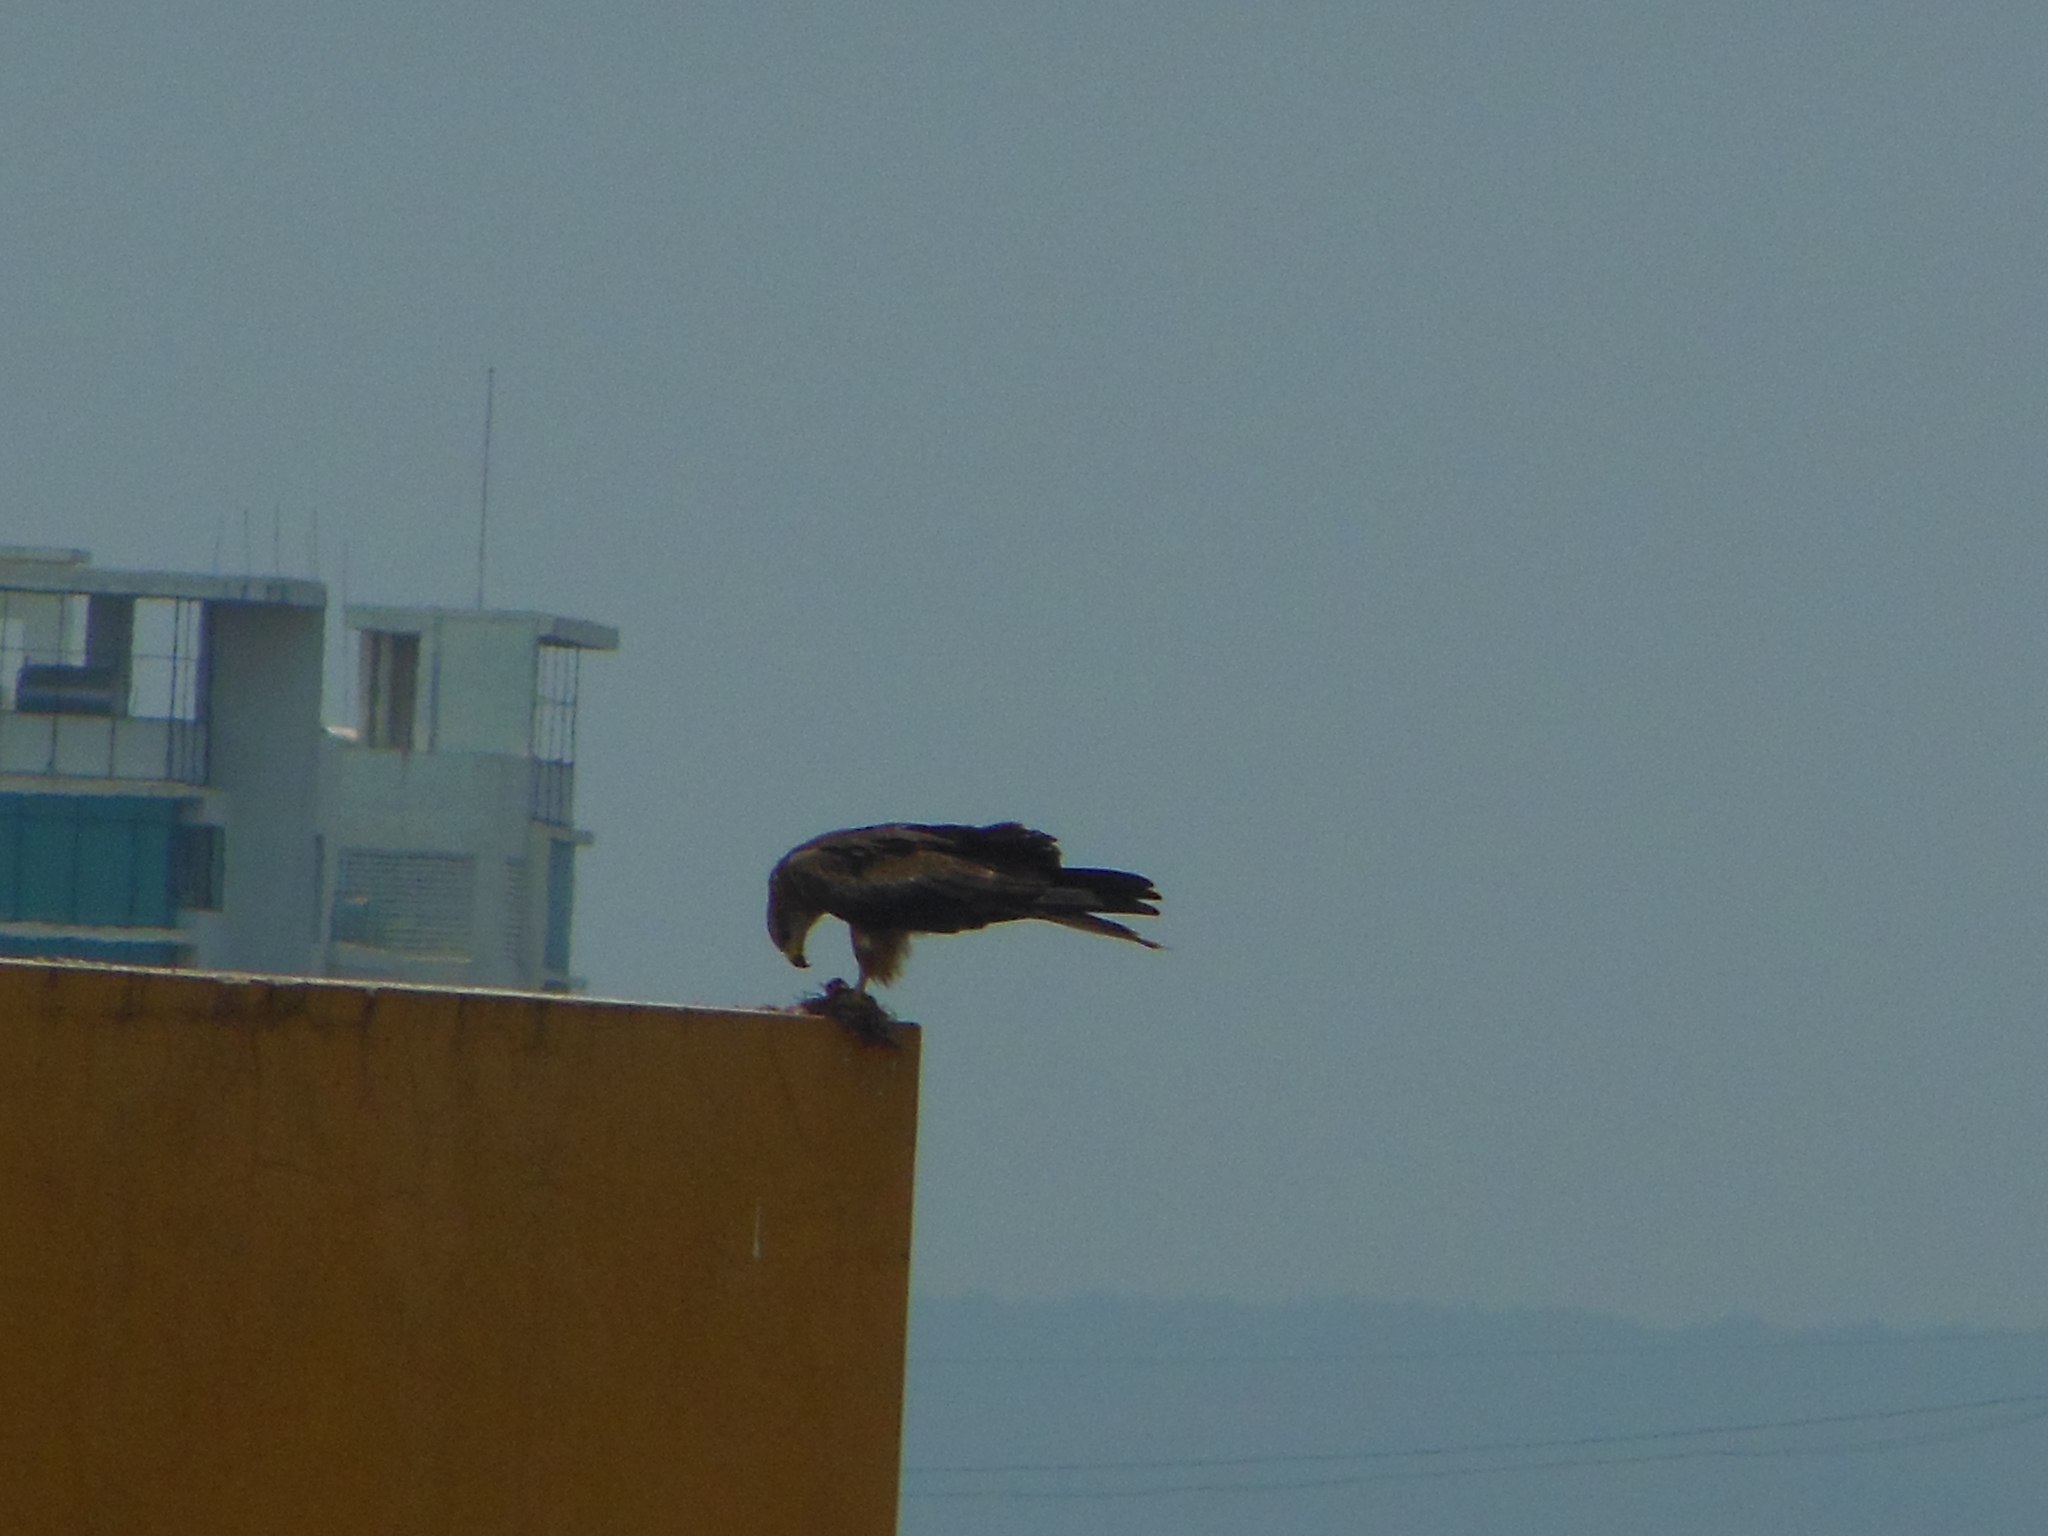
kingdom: Animalia
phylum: Chordata
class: Aves
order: Accipitriformes
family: Accipitridae
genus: Milvus
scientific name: Milvus migrans
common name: Black kite
